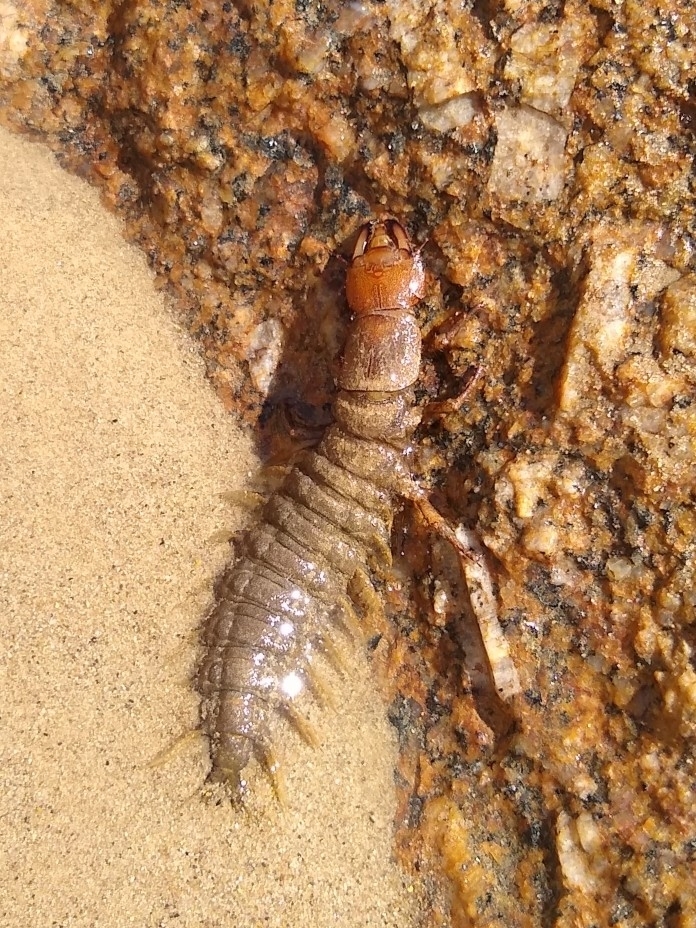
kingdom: Animalia
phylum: Arthropoda
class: Insecta
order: Megaloptera
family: Corydalidae
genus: Corydalus
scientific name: Corydalus texanus
